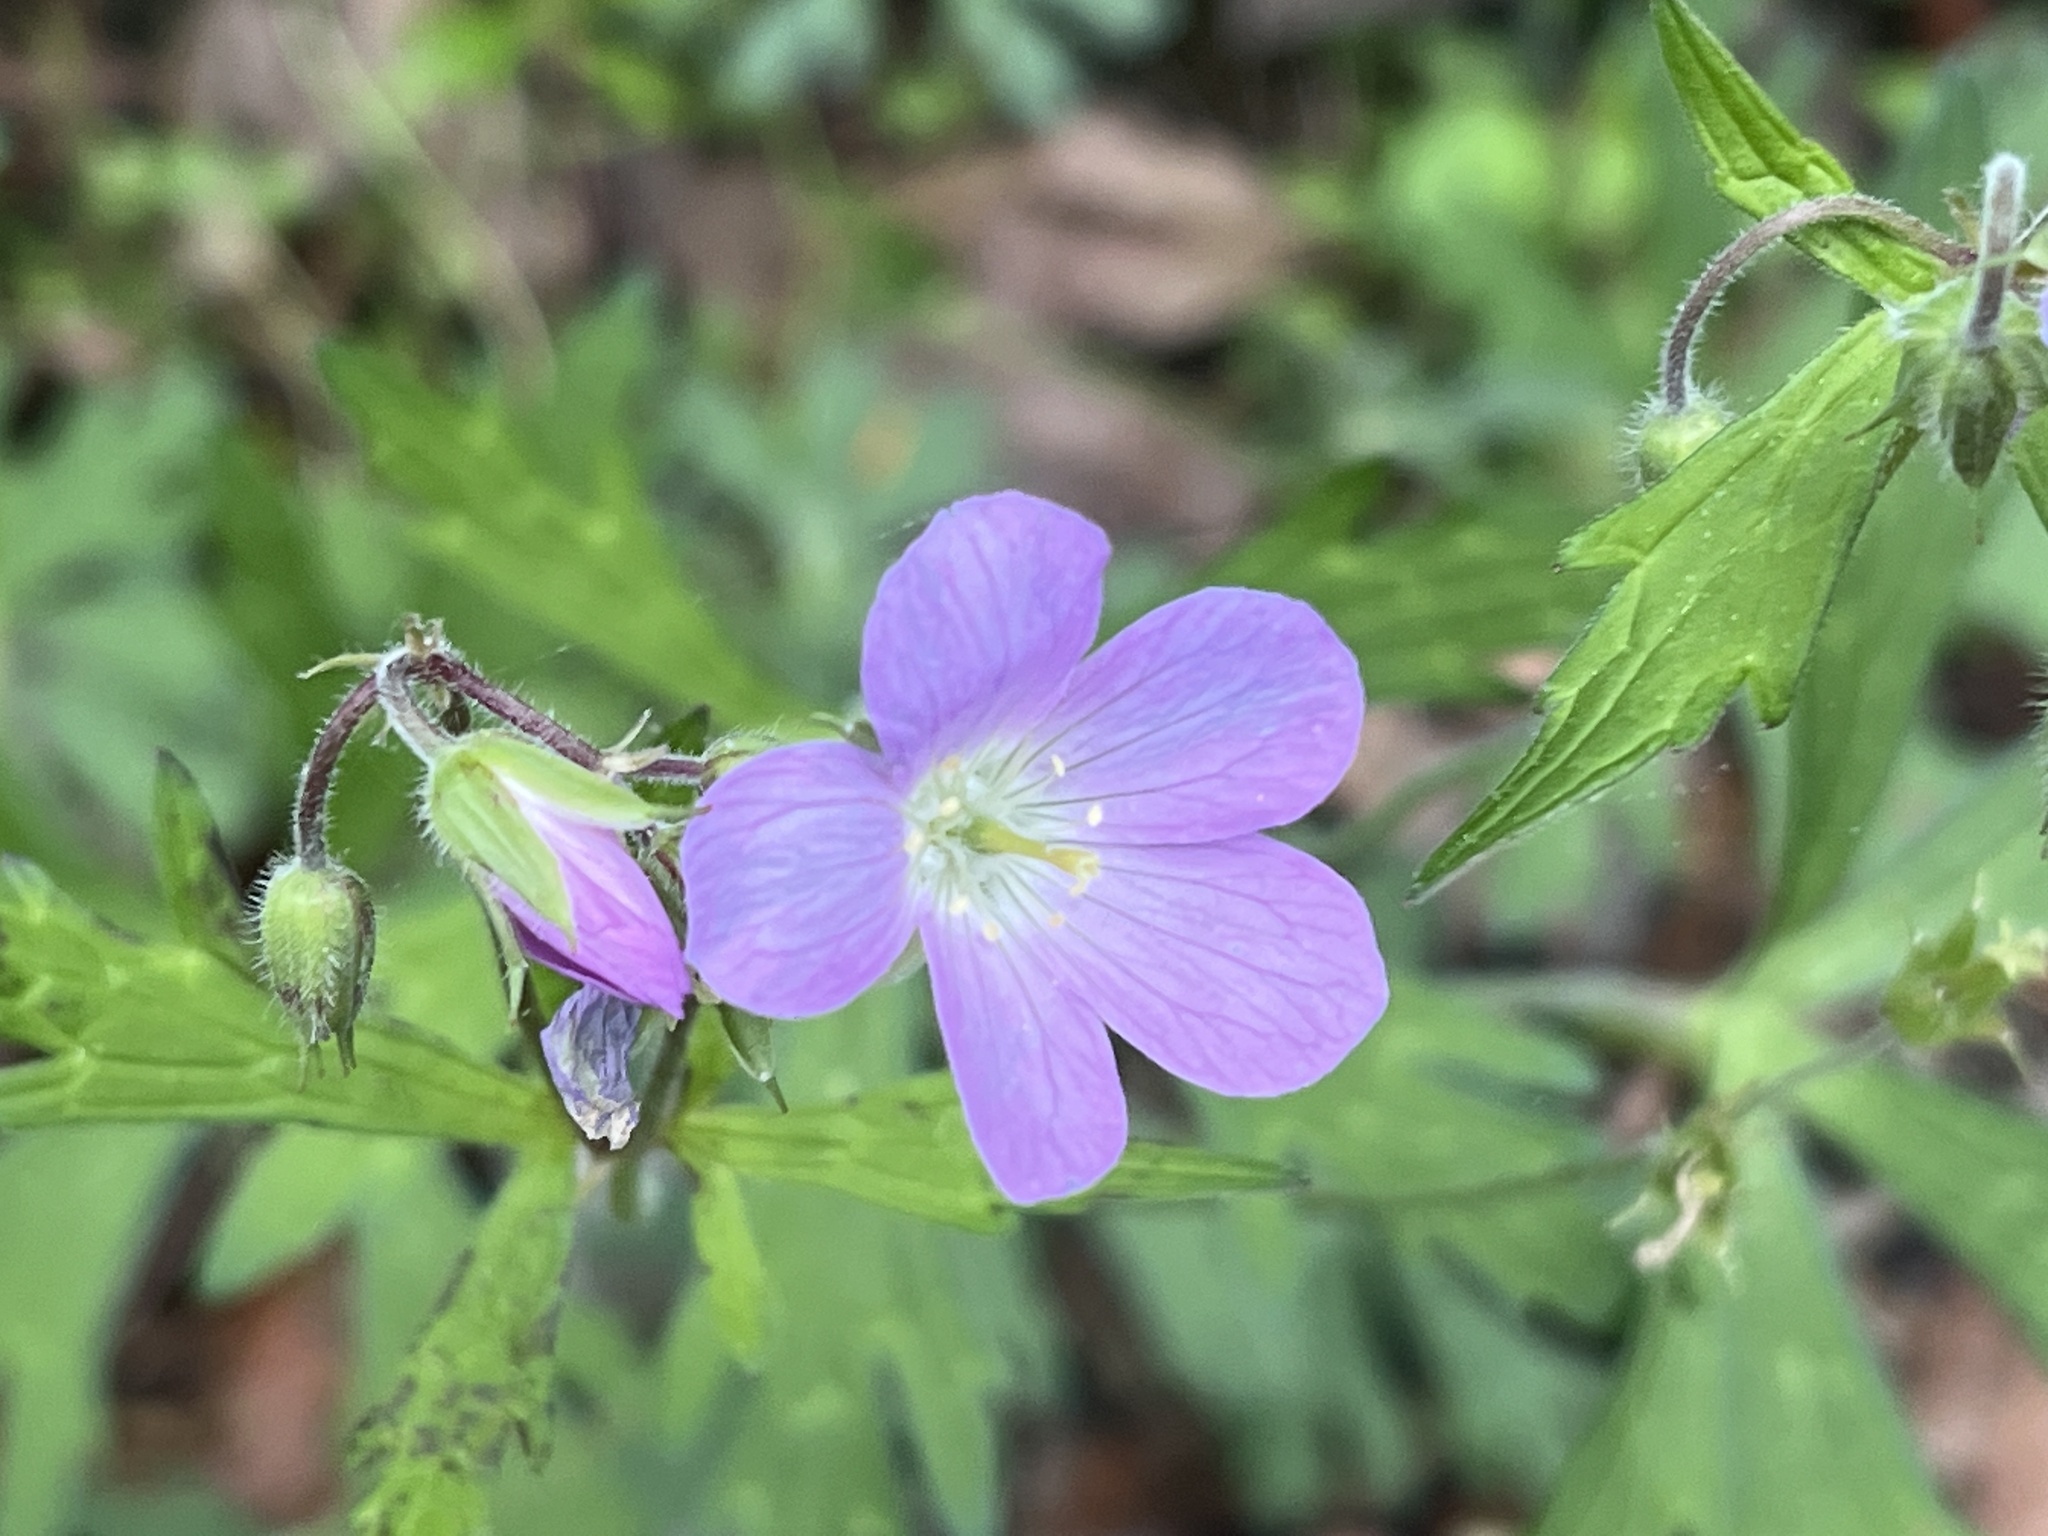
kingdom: Plantae
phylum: Tracheophyta
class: Magnoliopsida
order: Geraniales
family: Geraniaceae
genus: Geranium
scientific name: Geranium maculatum
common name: Spotted geranium
